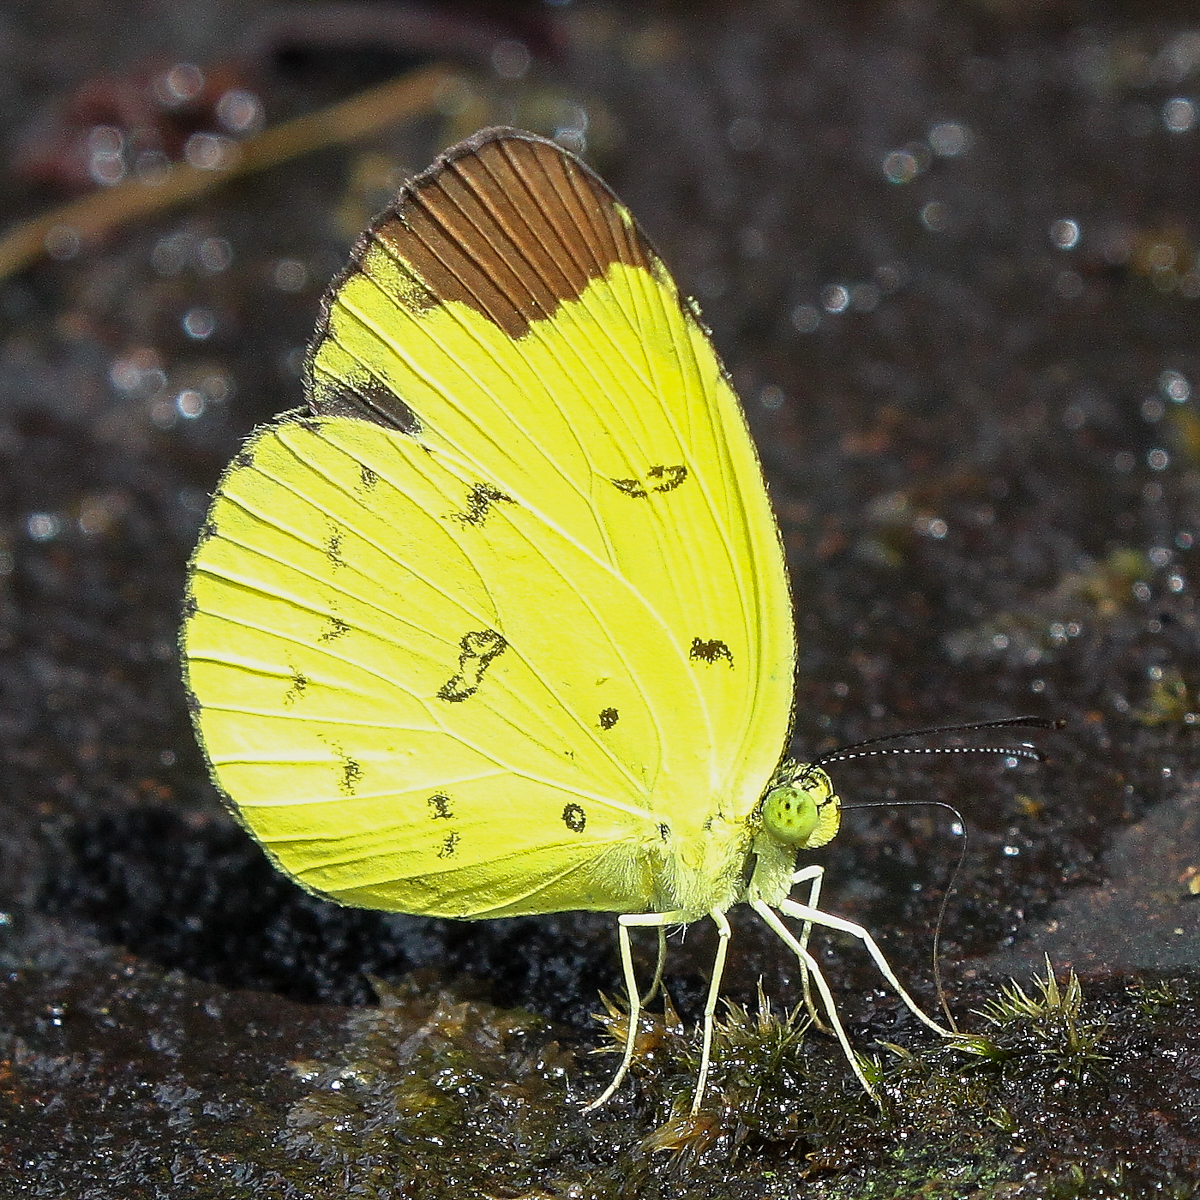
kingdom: Animalia
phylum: Arthropoda
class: Insecta
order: Lepidoptera
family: Pieridae
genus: Eurema
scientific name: Eurema sari
